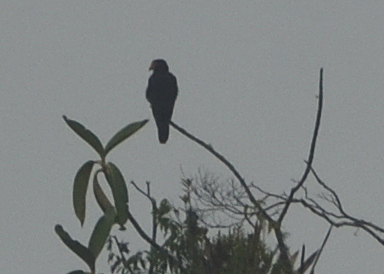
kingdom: Animalia
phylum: Chordata
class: Aves
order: Falconiformes
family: Falconidae
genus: Daptrius
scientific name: Daptrius ater
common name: Black caracara
